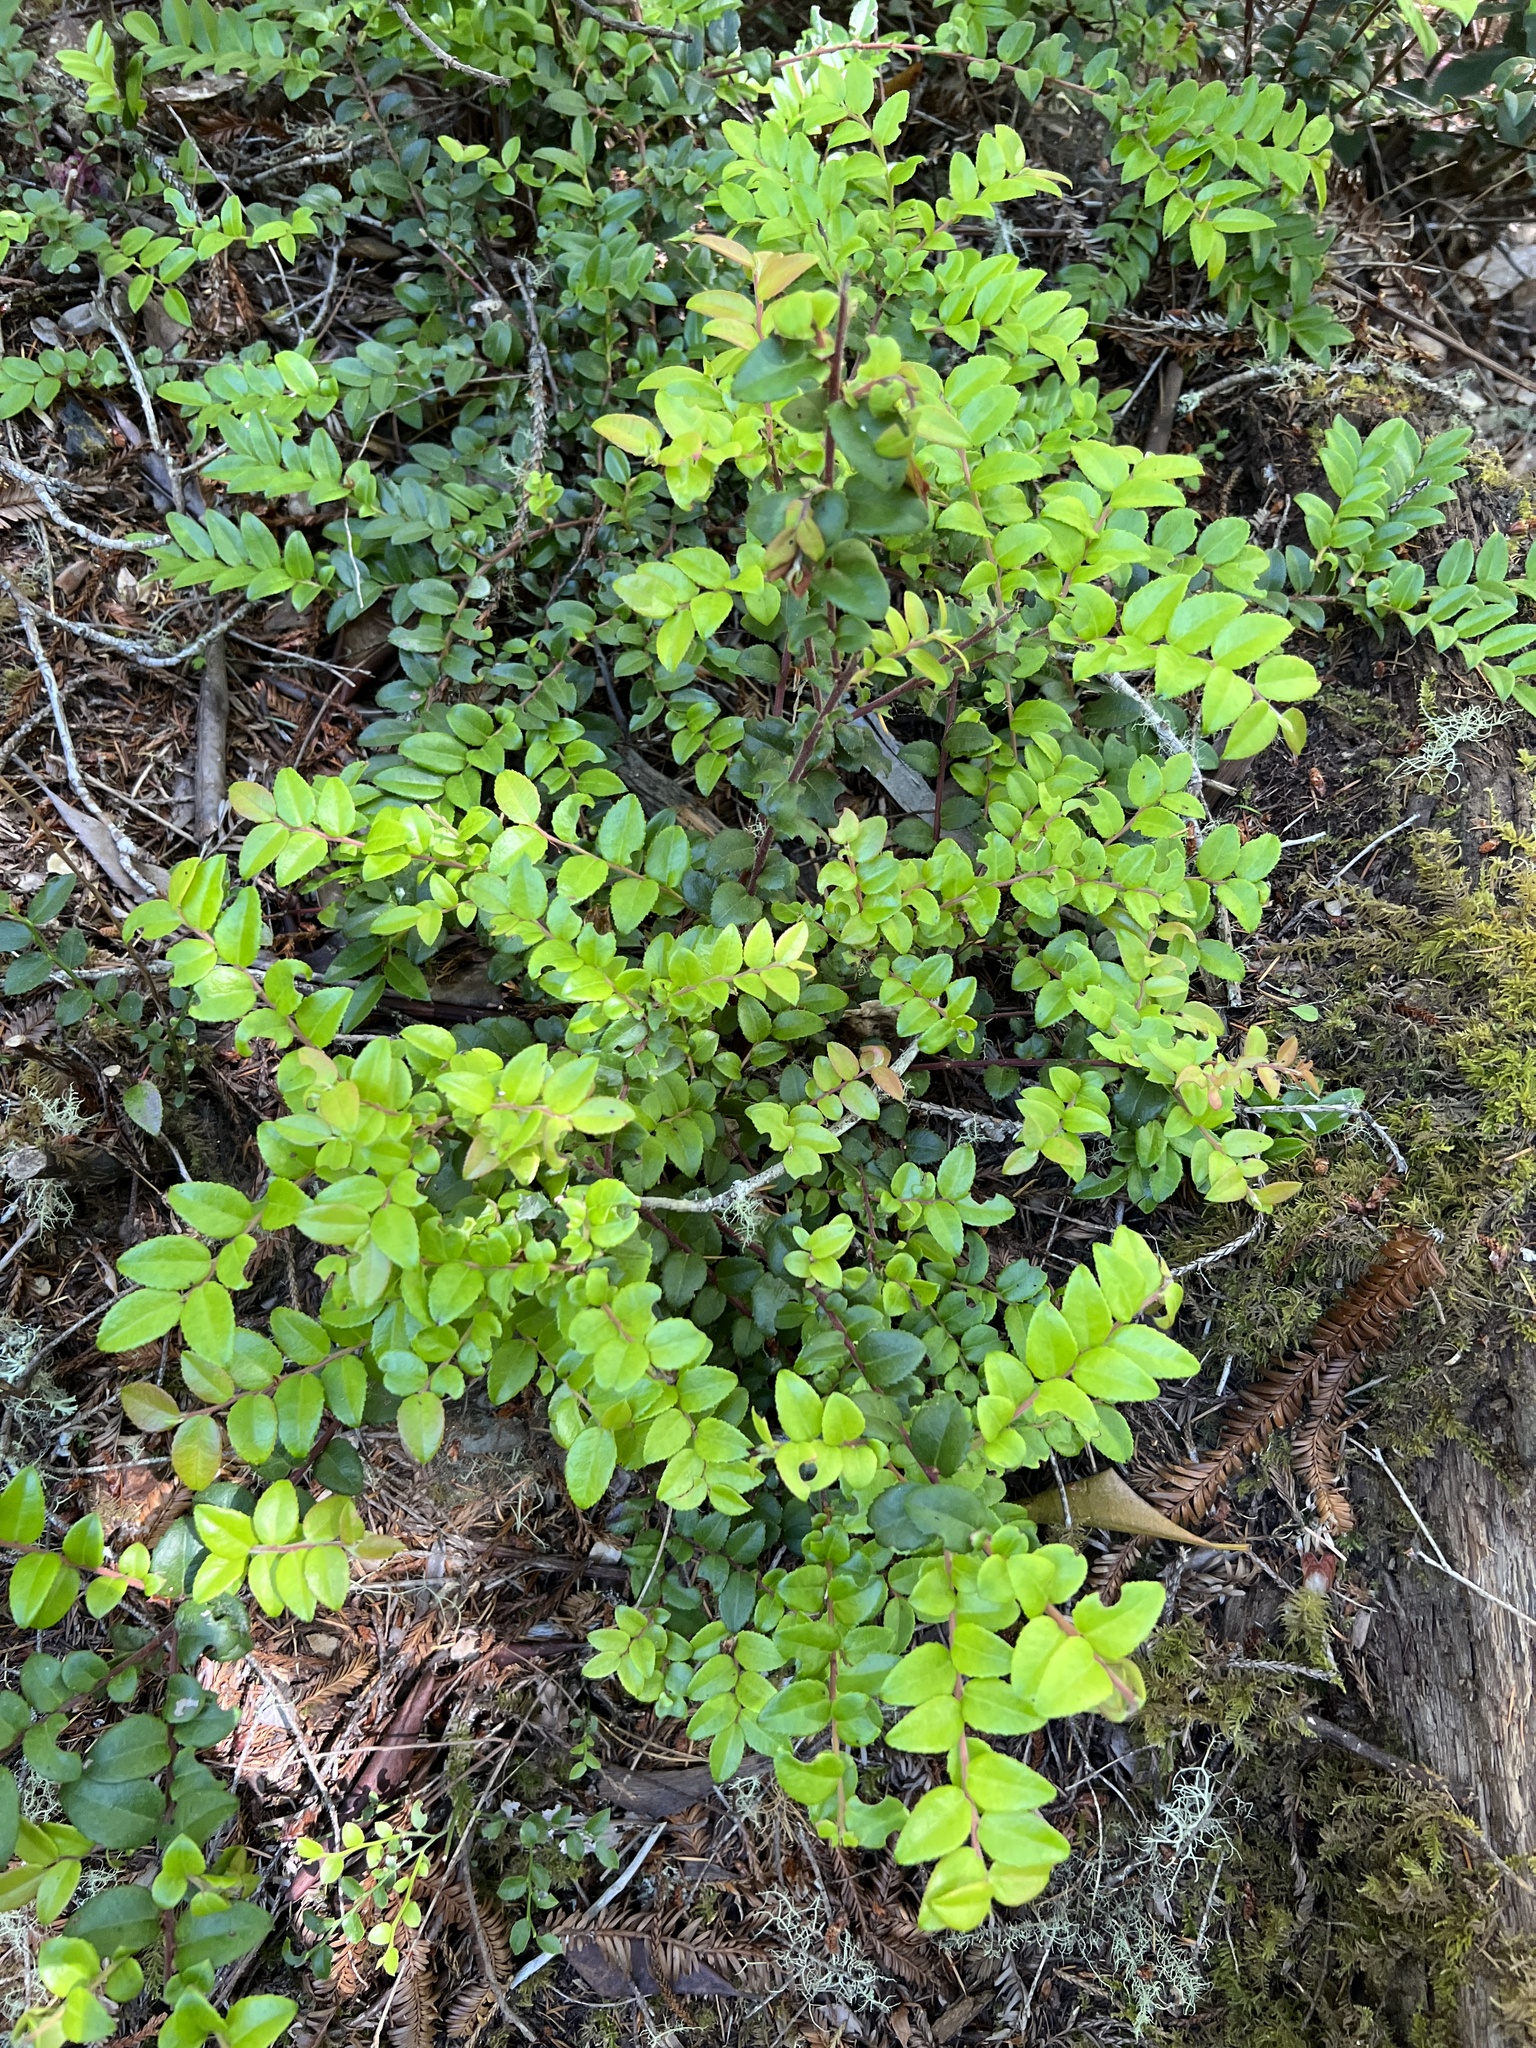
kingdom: Plantae
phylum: Tracheophyta
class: Magnoliopsida
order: Ericales
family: Ericaceae
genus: Vaccinium
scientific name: Vaccinium ovatum
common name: California-huckleberry
